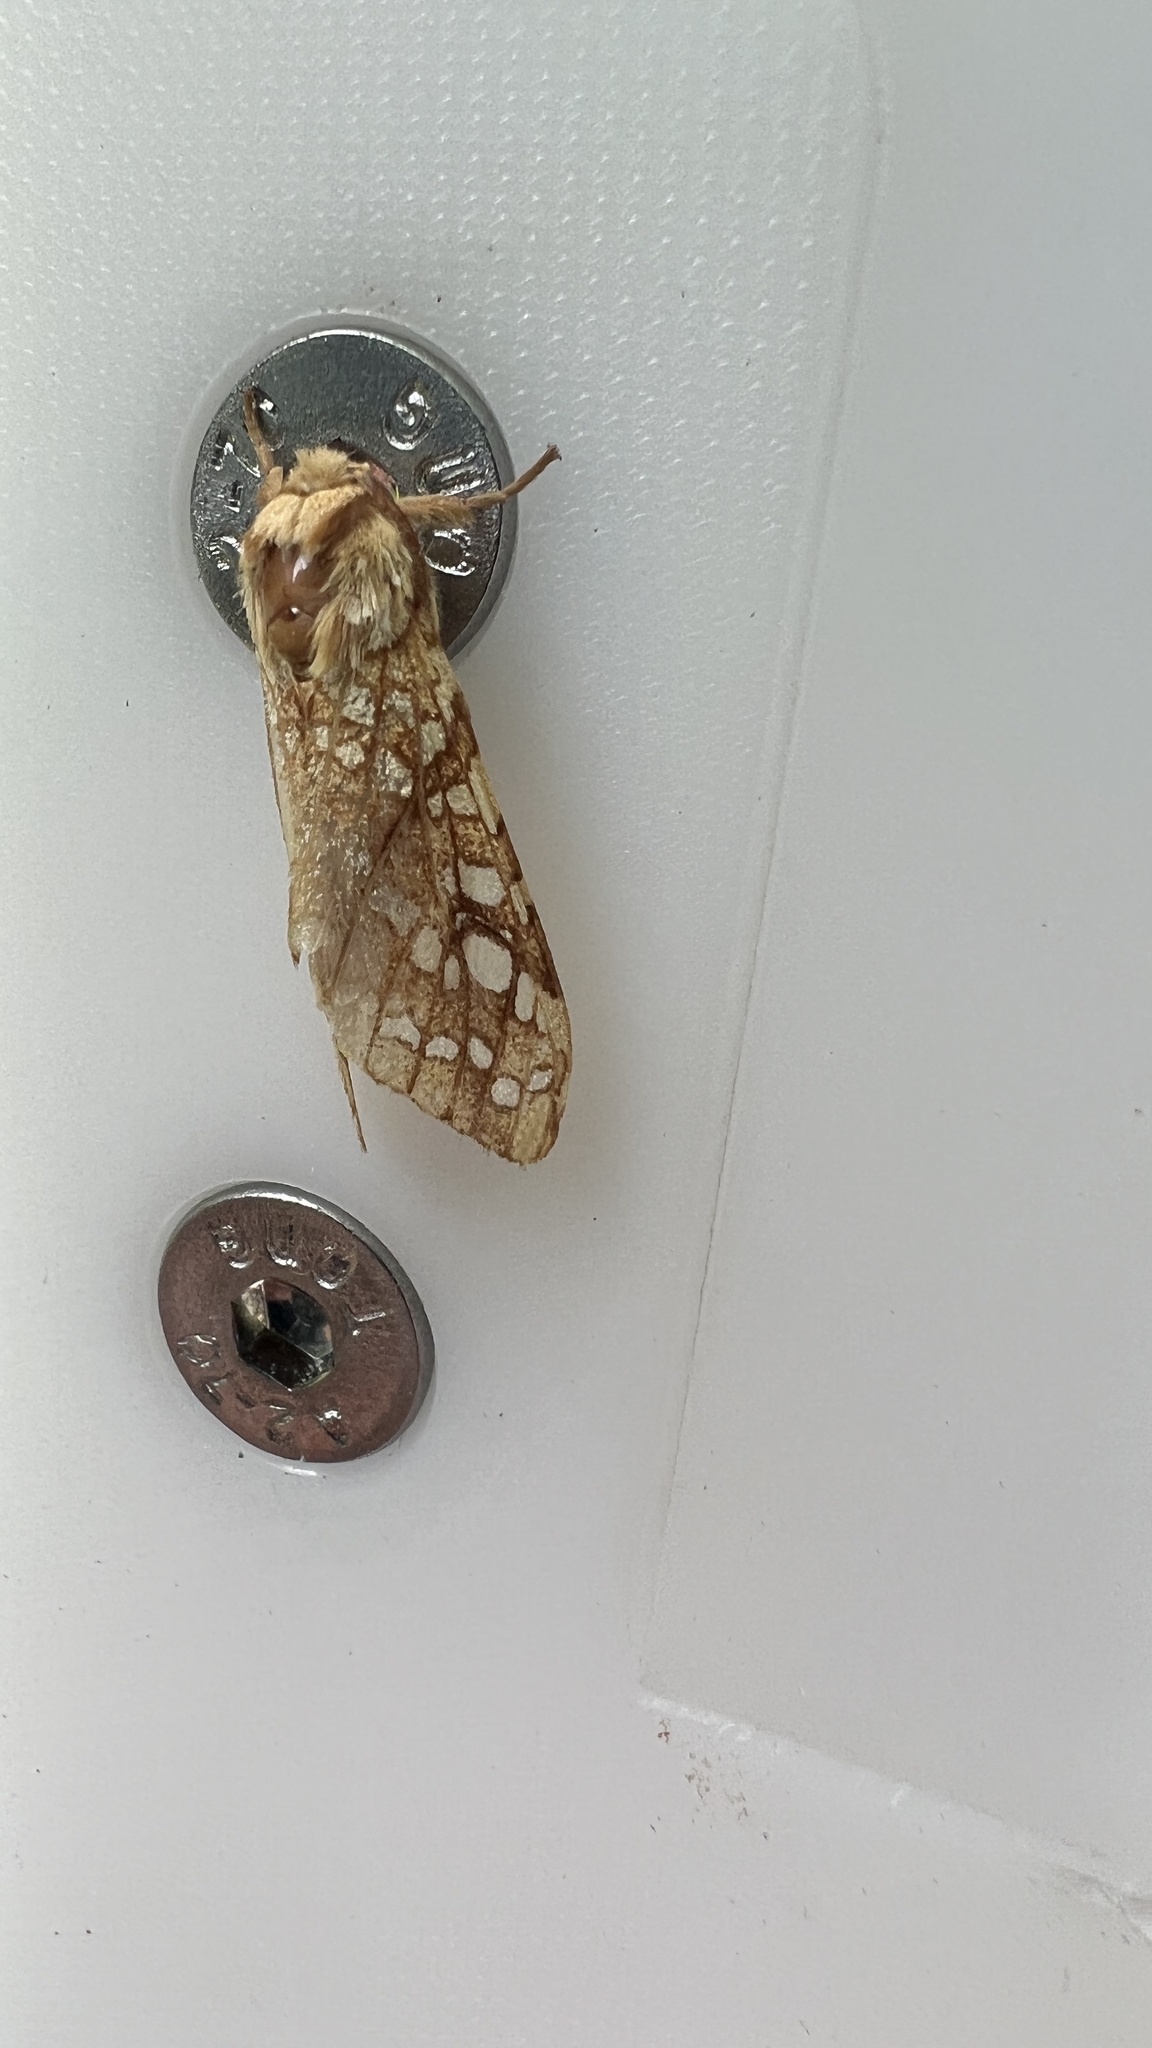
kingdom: Animalia
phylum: Arthropoda
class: Insecta
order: Lepidoptera
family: Erebidae
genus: Lophocampa
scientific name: Lophocampa caryae
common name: Hickory tussock moth
